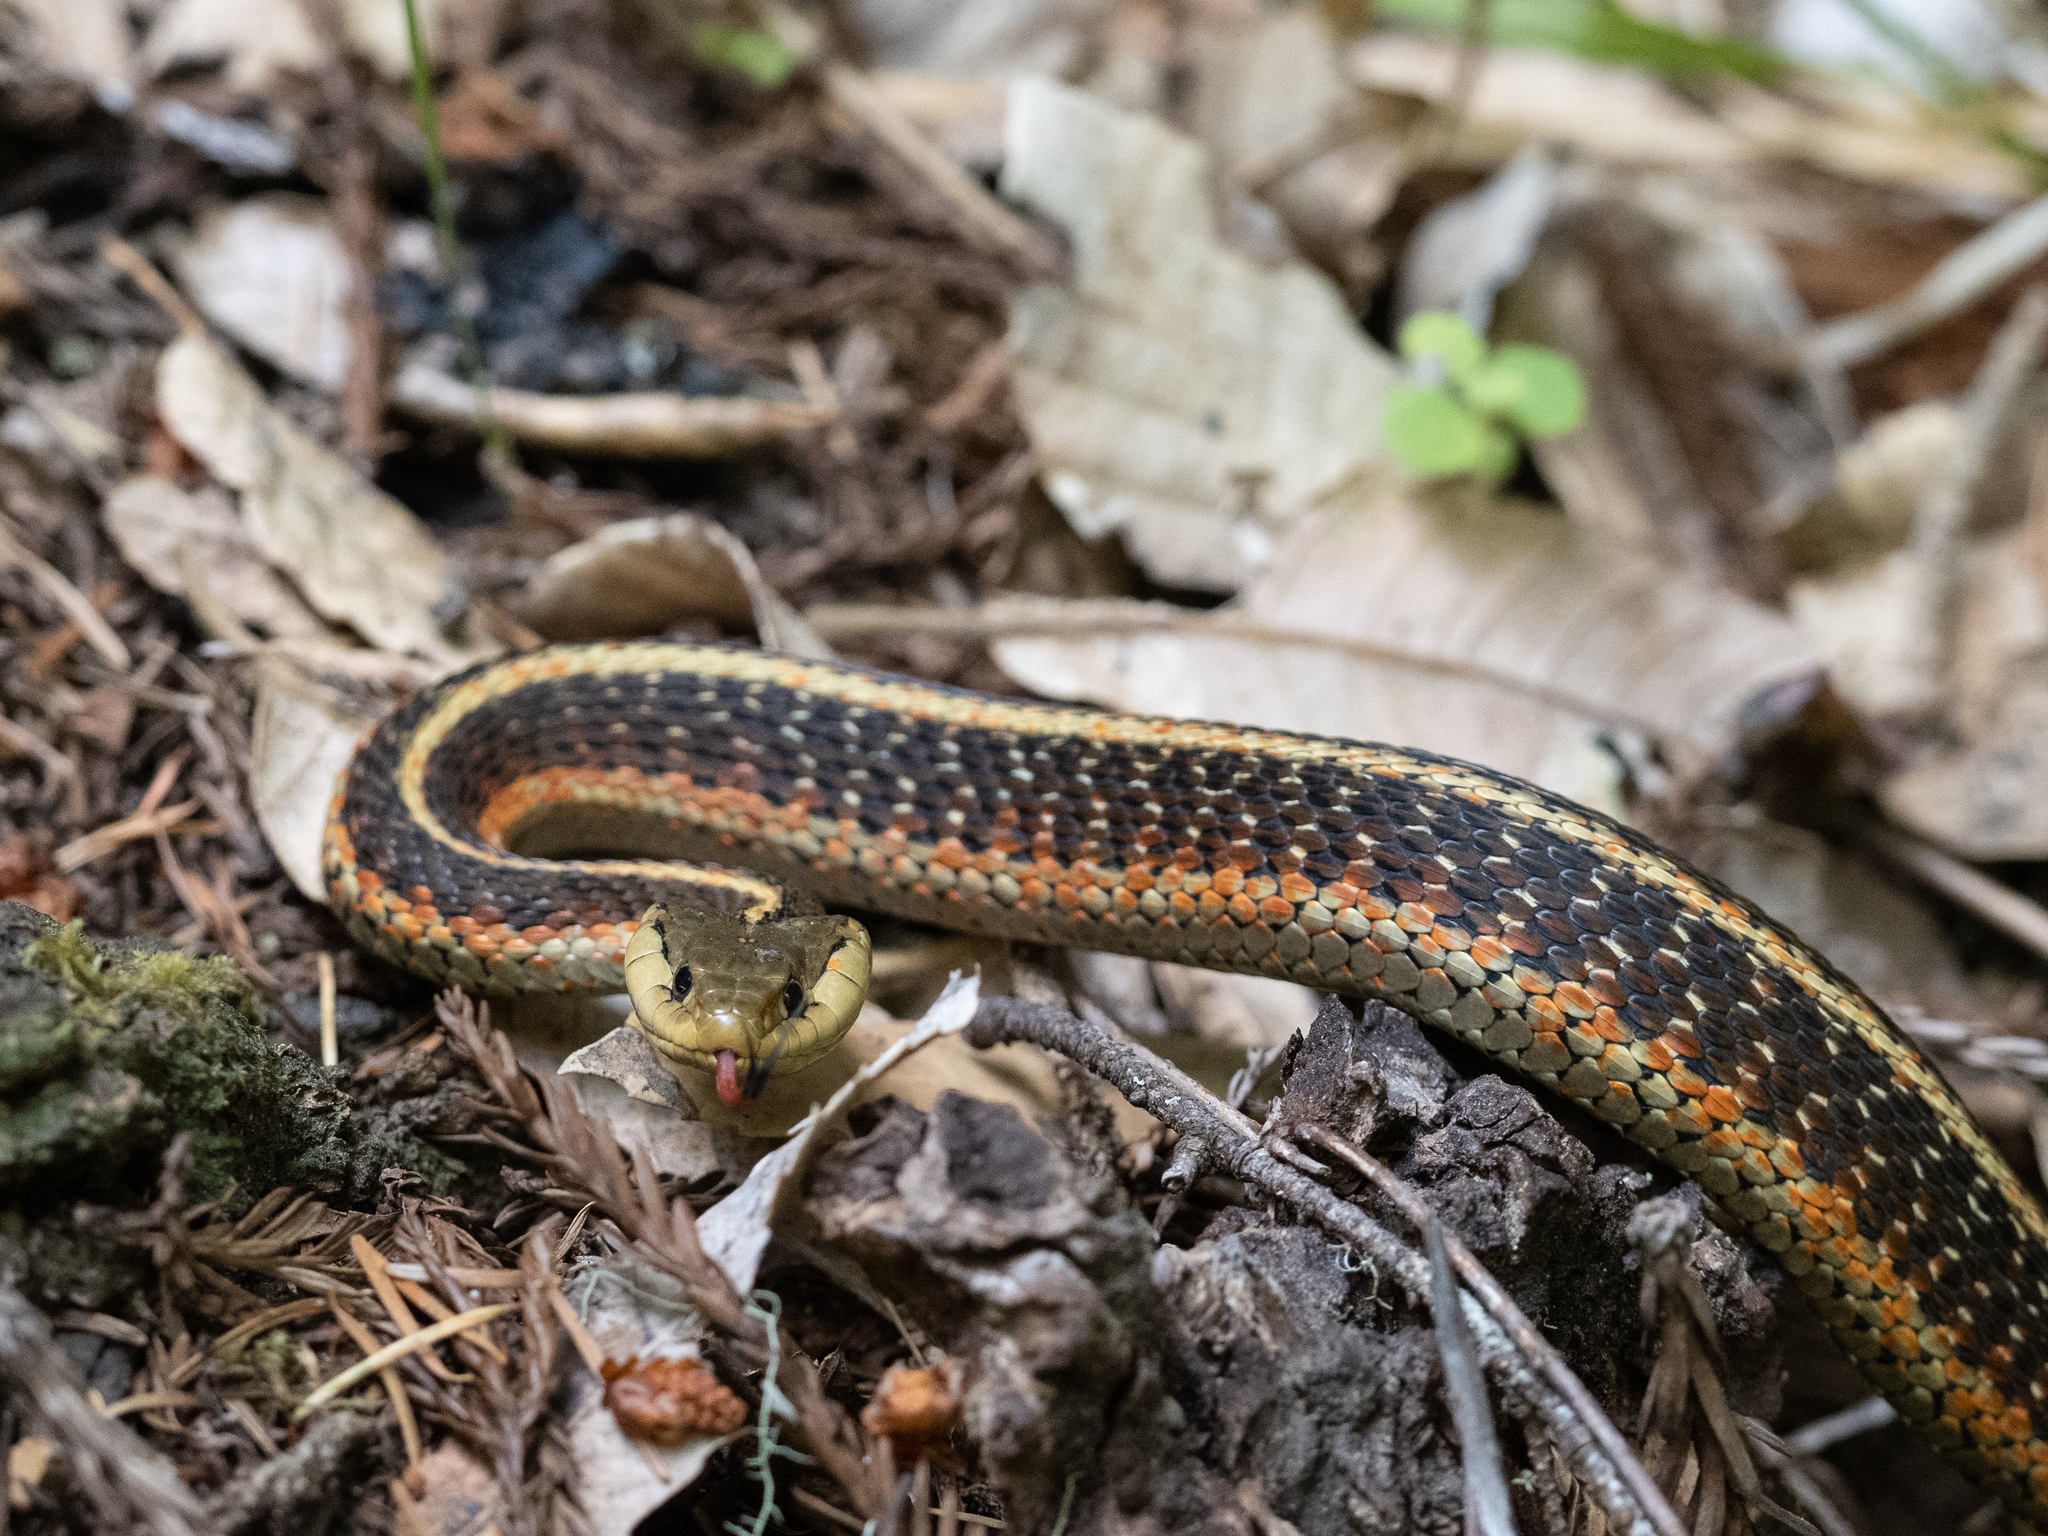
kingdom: Animalia
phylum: Chordata
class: Squamata
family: Colubridae
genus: Thamnophis
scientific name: Thamnophis elegans
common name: Western terrestrial garter snake
